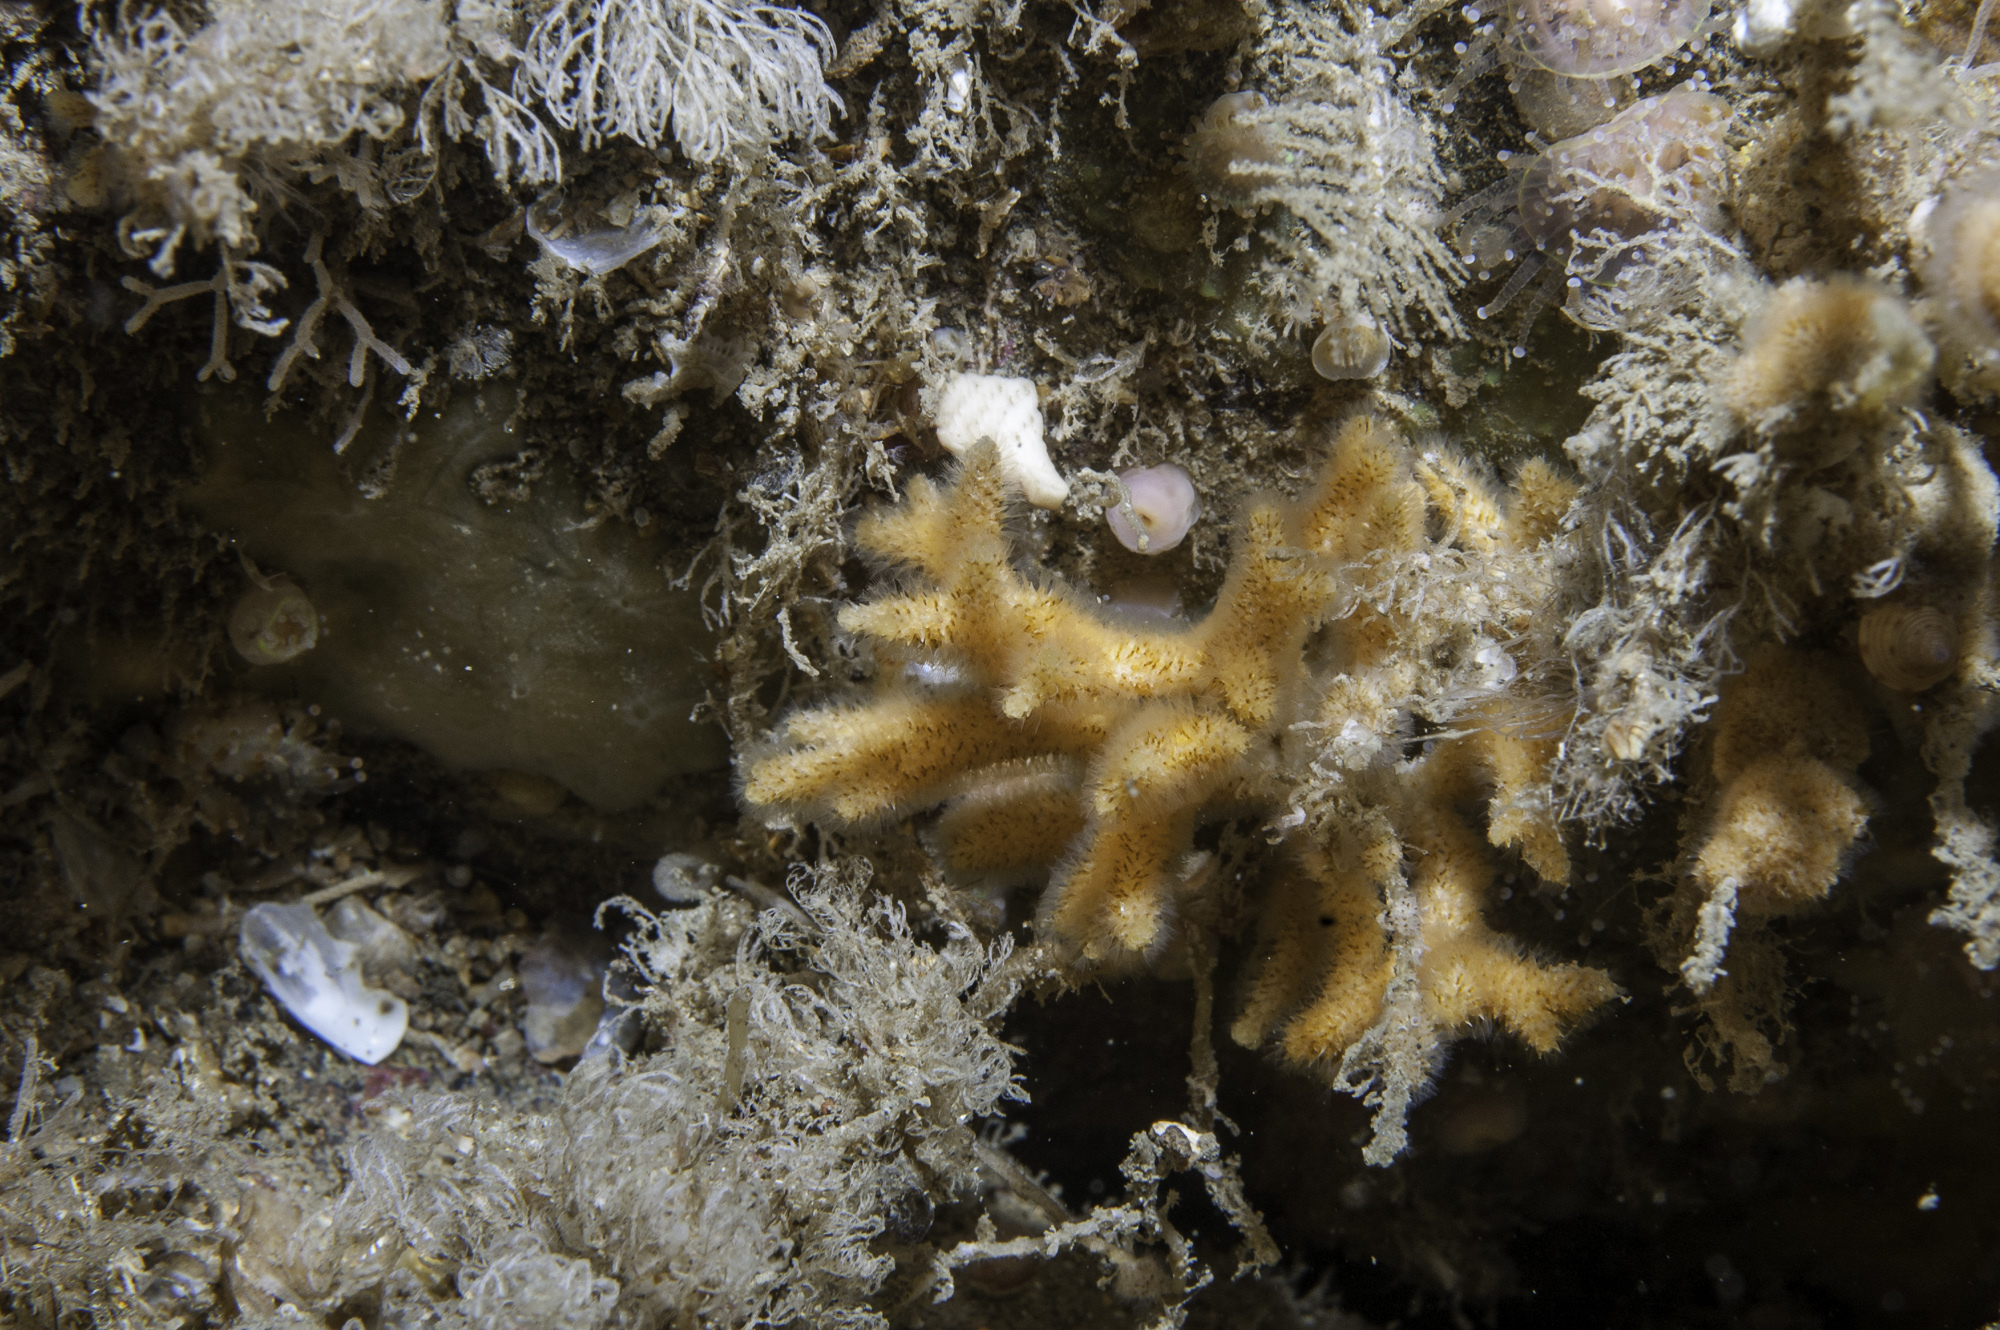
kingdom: Animalia
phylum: Bryozoa
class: Gymnolaemata
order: Cheilostomatida
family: Celleporidae
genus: Omalosecosa
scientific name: Omalosecosa ramulosa
